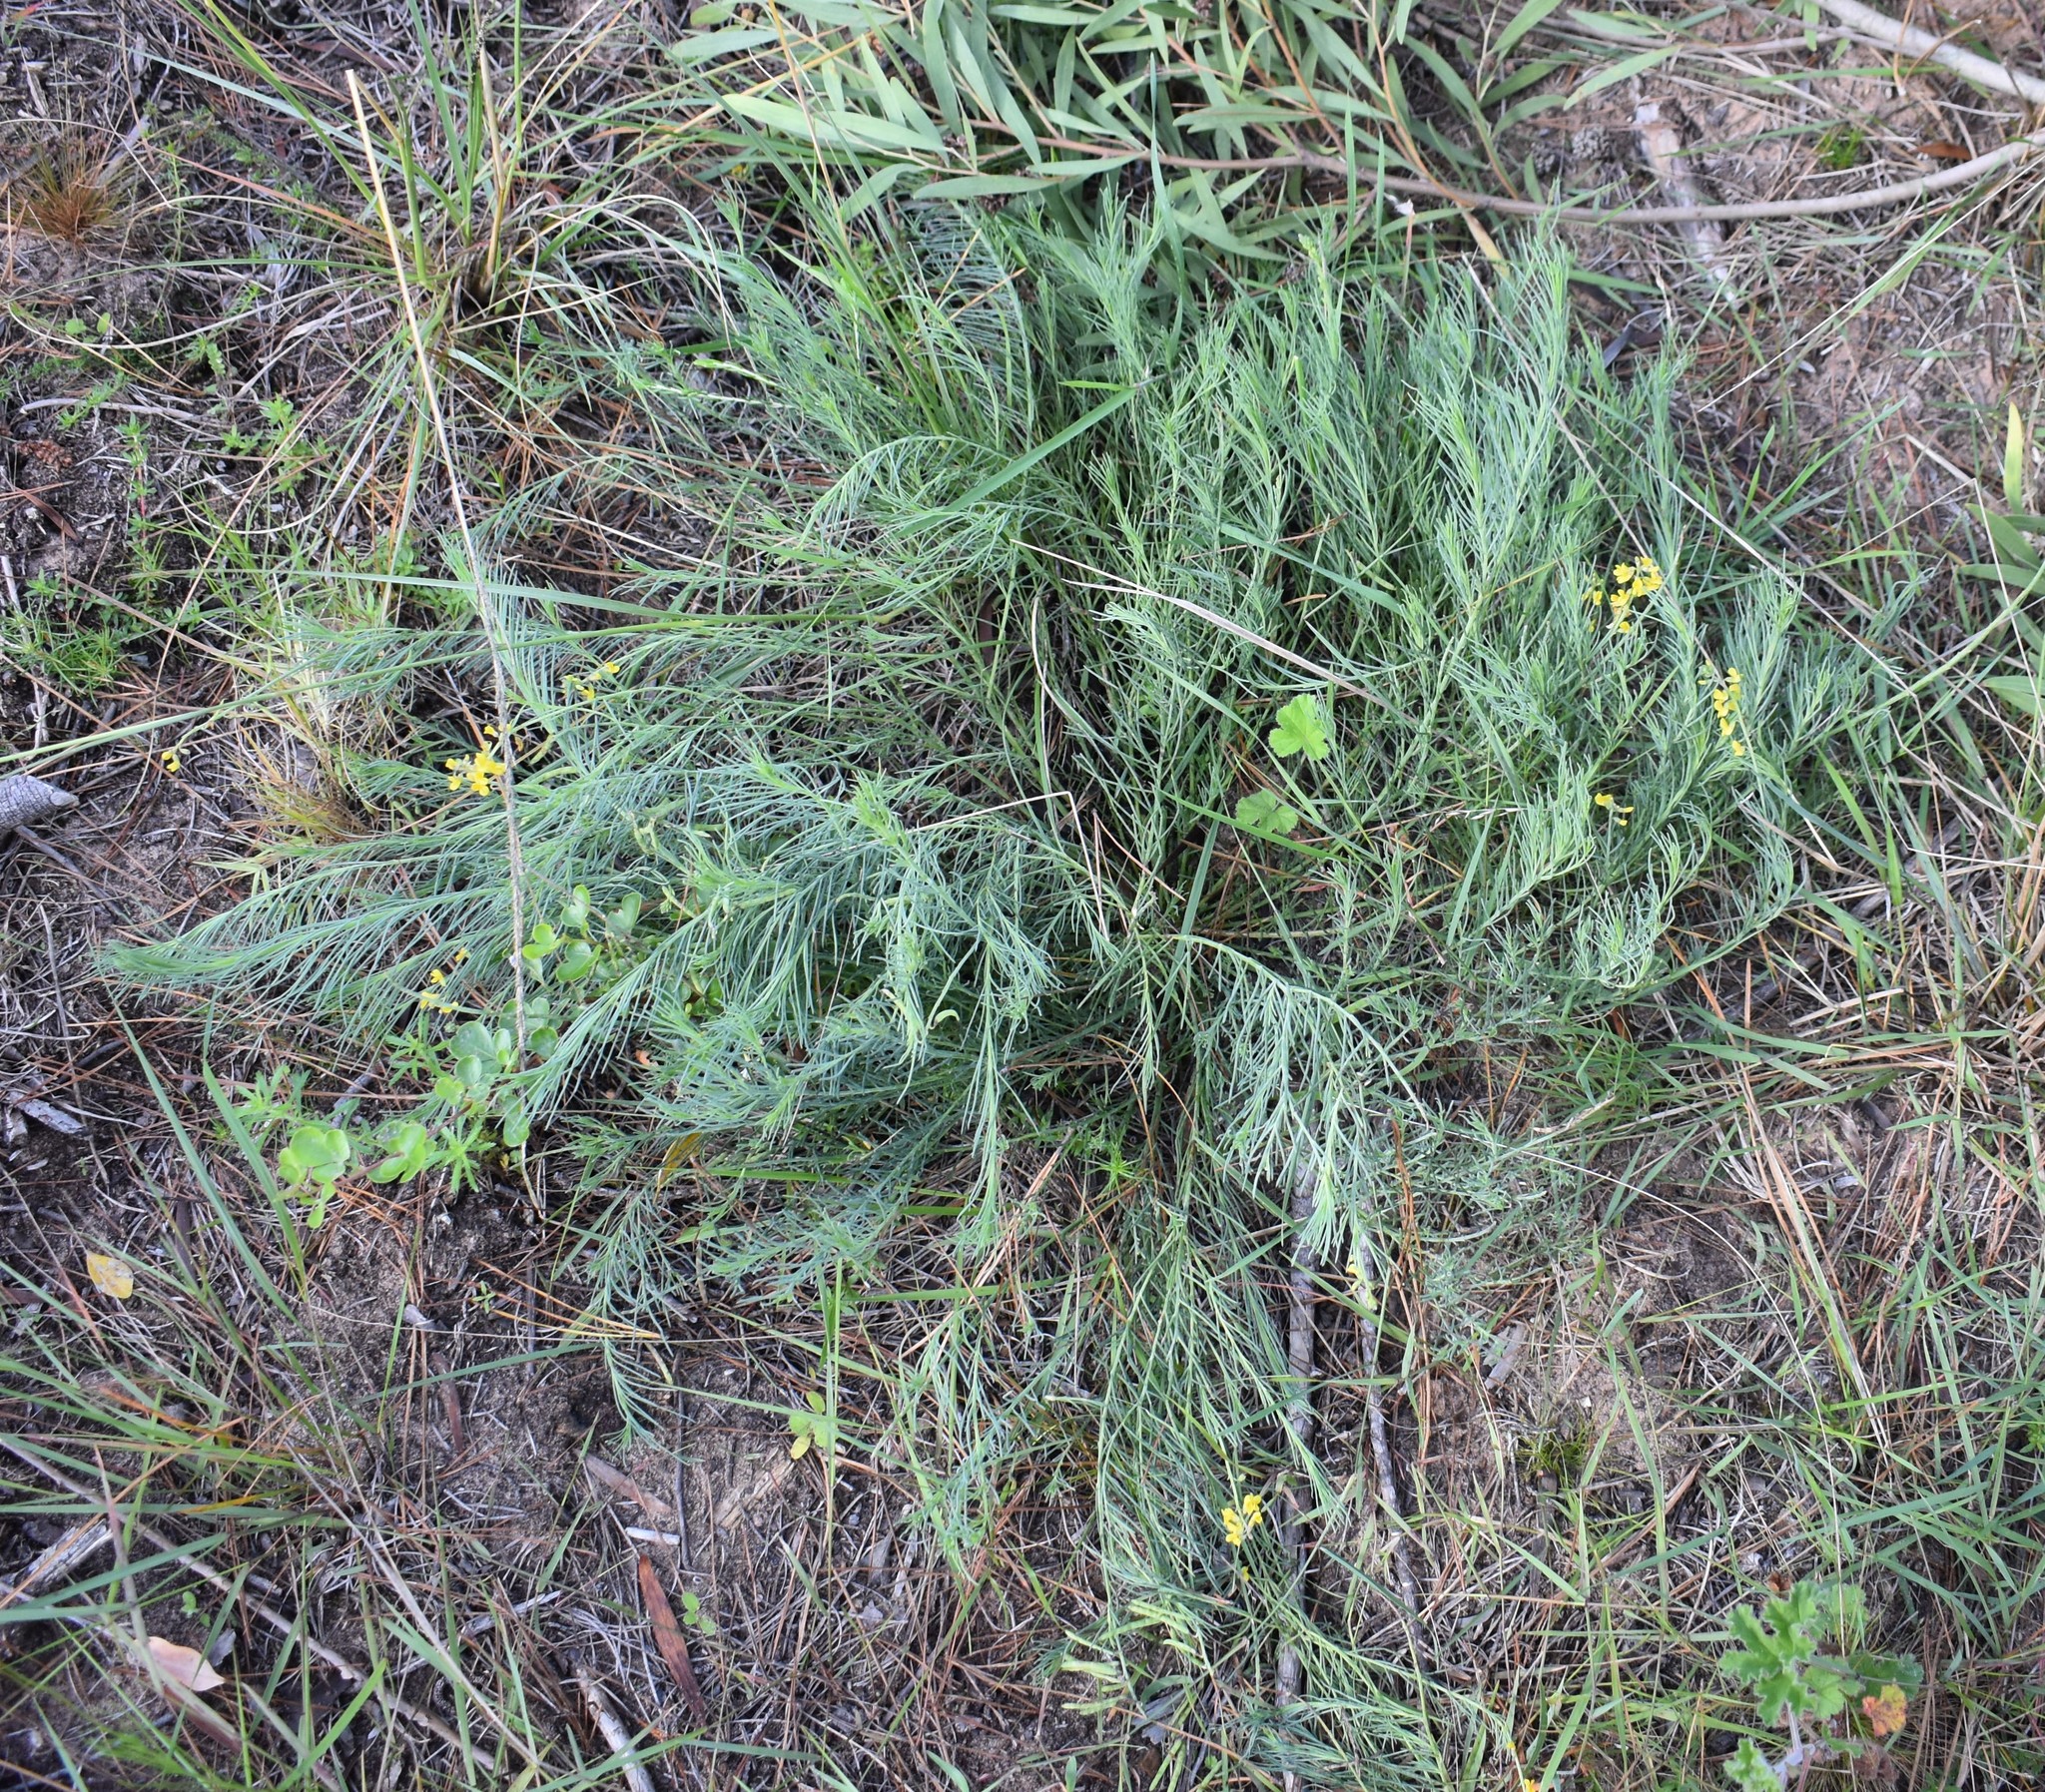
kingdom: Plantae
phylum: Tracheophyta
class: Magnoliopsida
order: Fabales
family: Fabaceae
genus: Lebeckia
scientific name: Lebeckia gracilis
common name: Slender ganna
